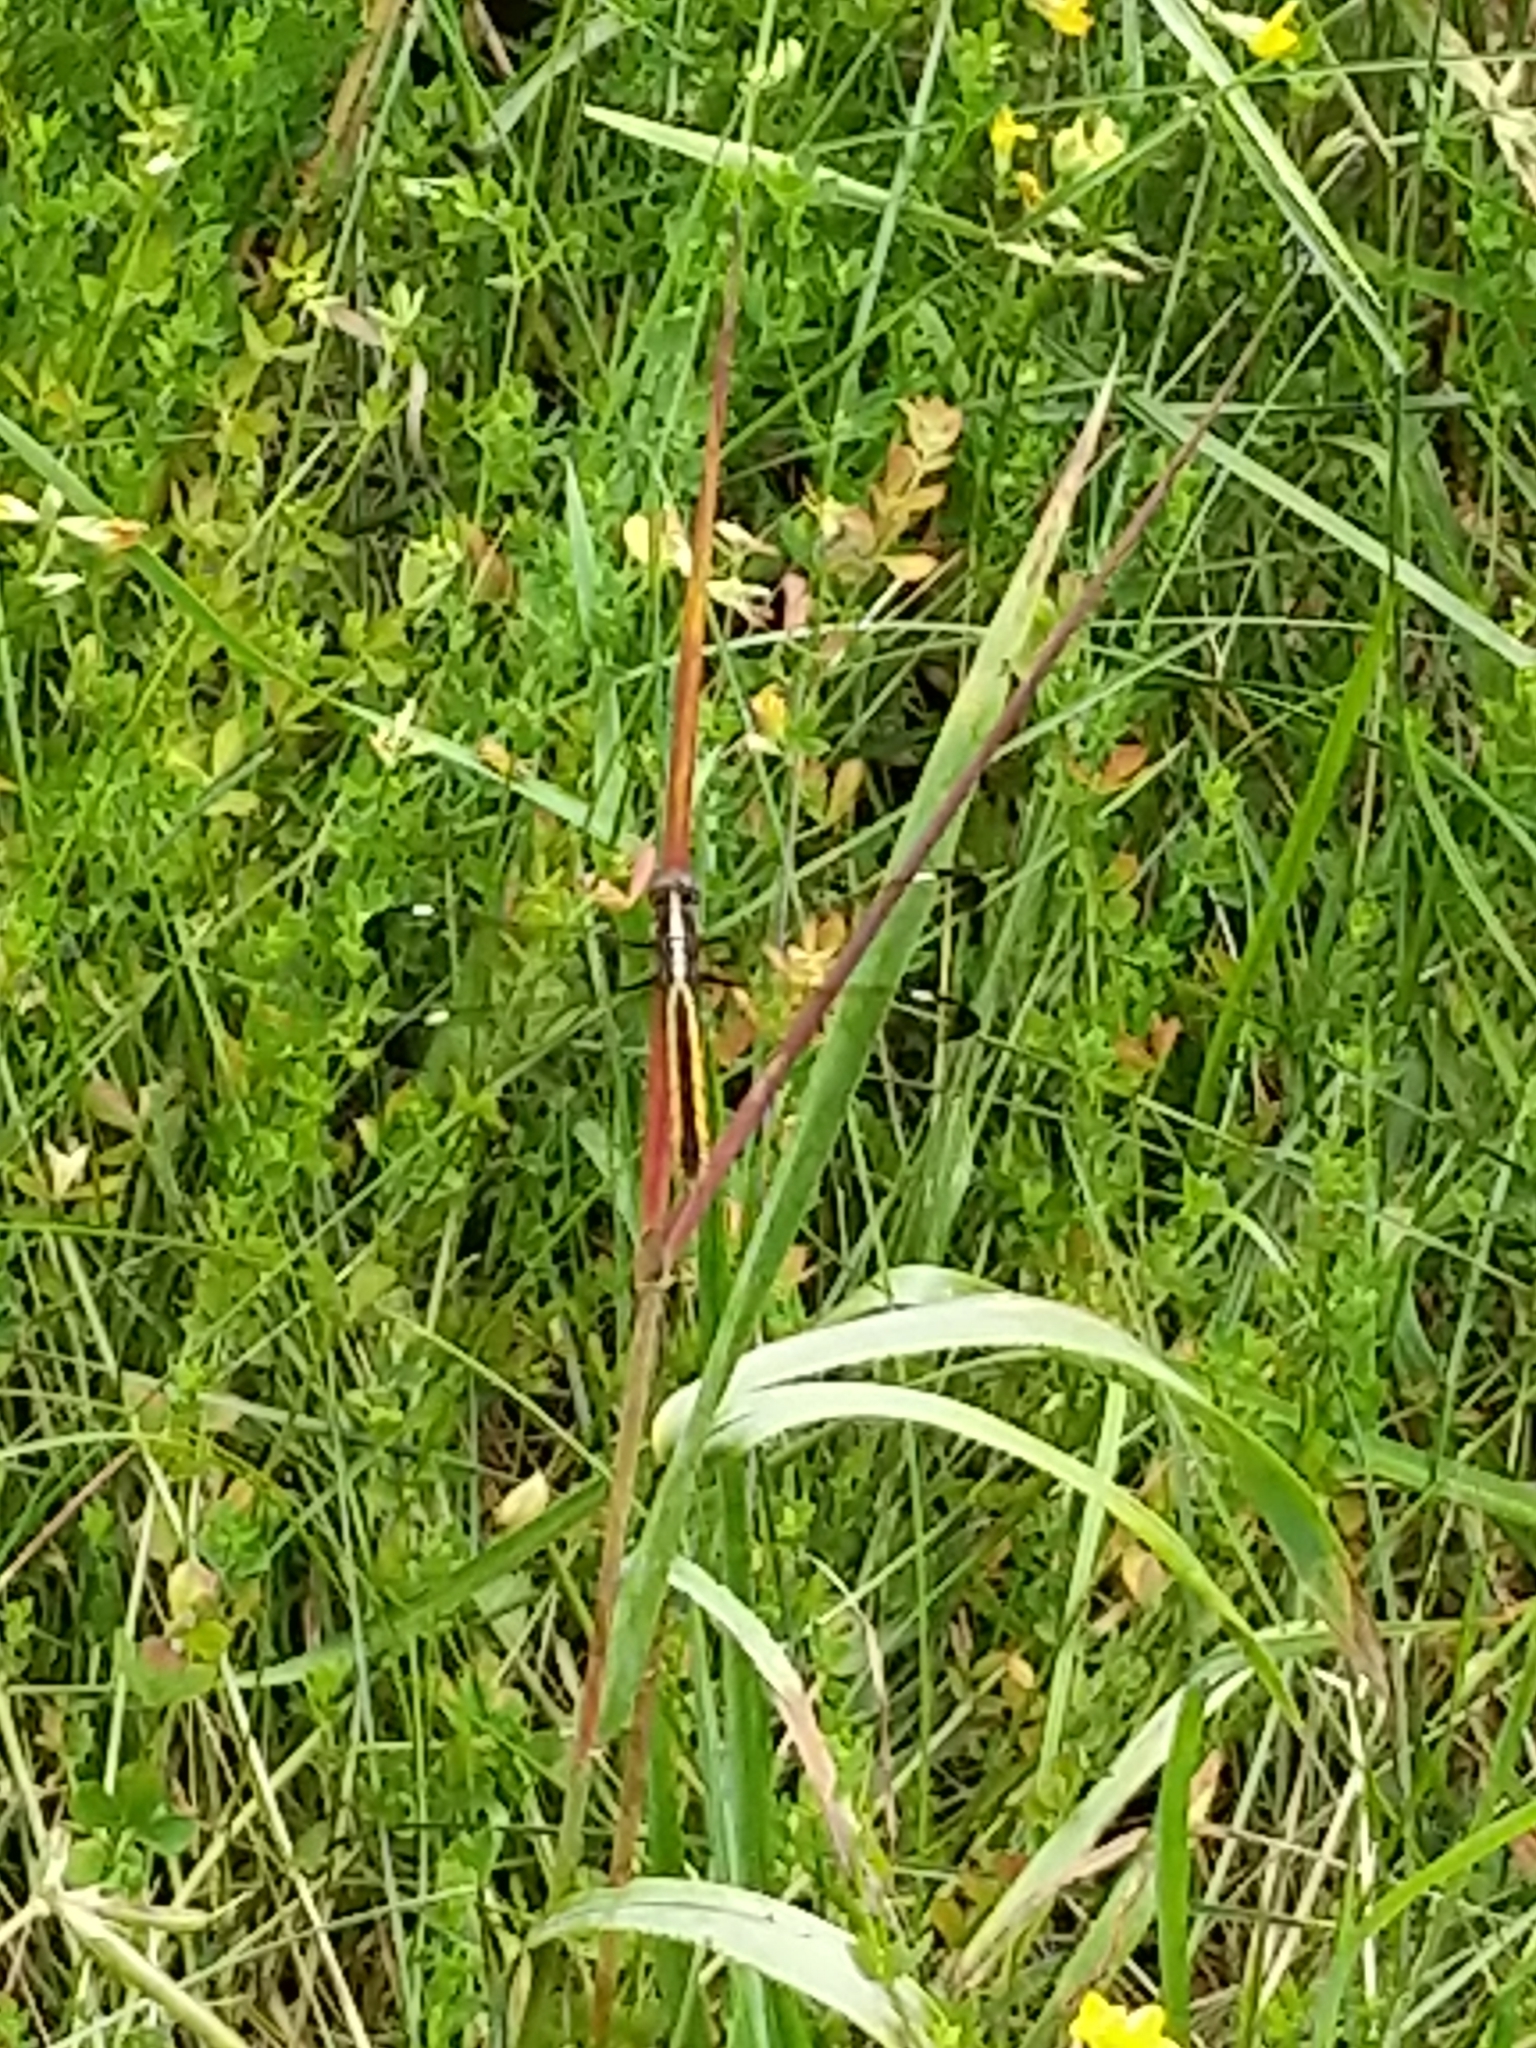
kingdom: Animalia
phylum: Arthropoda
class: Insecta
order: Odonata
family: Libellulidae
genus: Libellula
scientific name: Libellula cyanea
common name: Spangled skimmer
